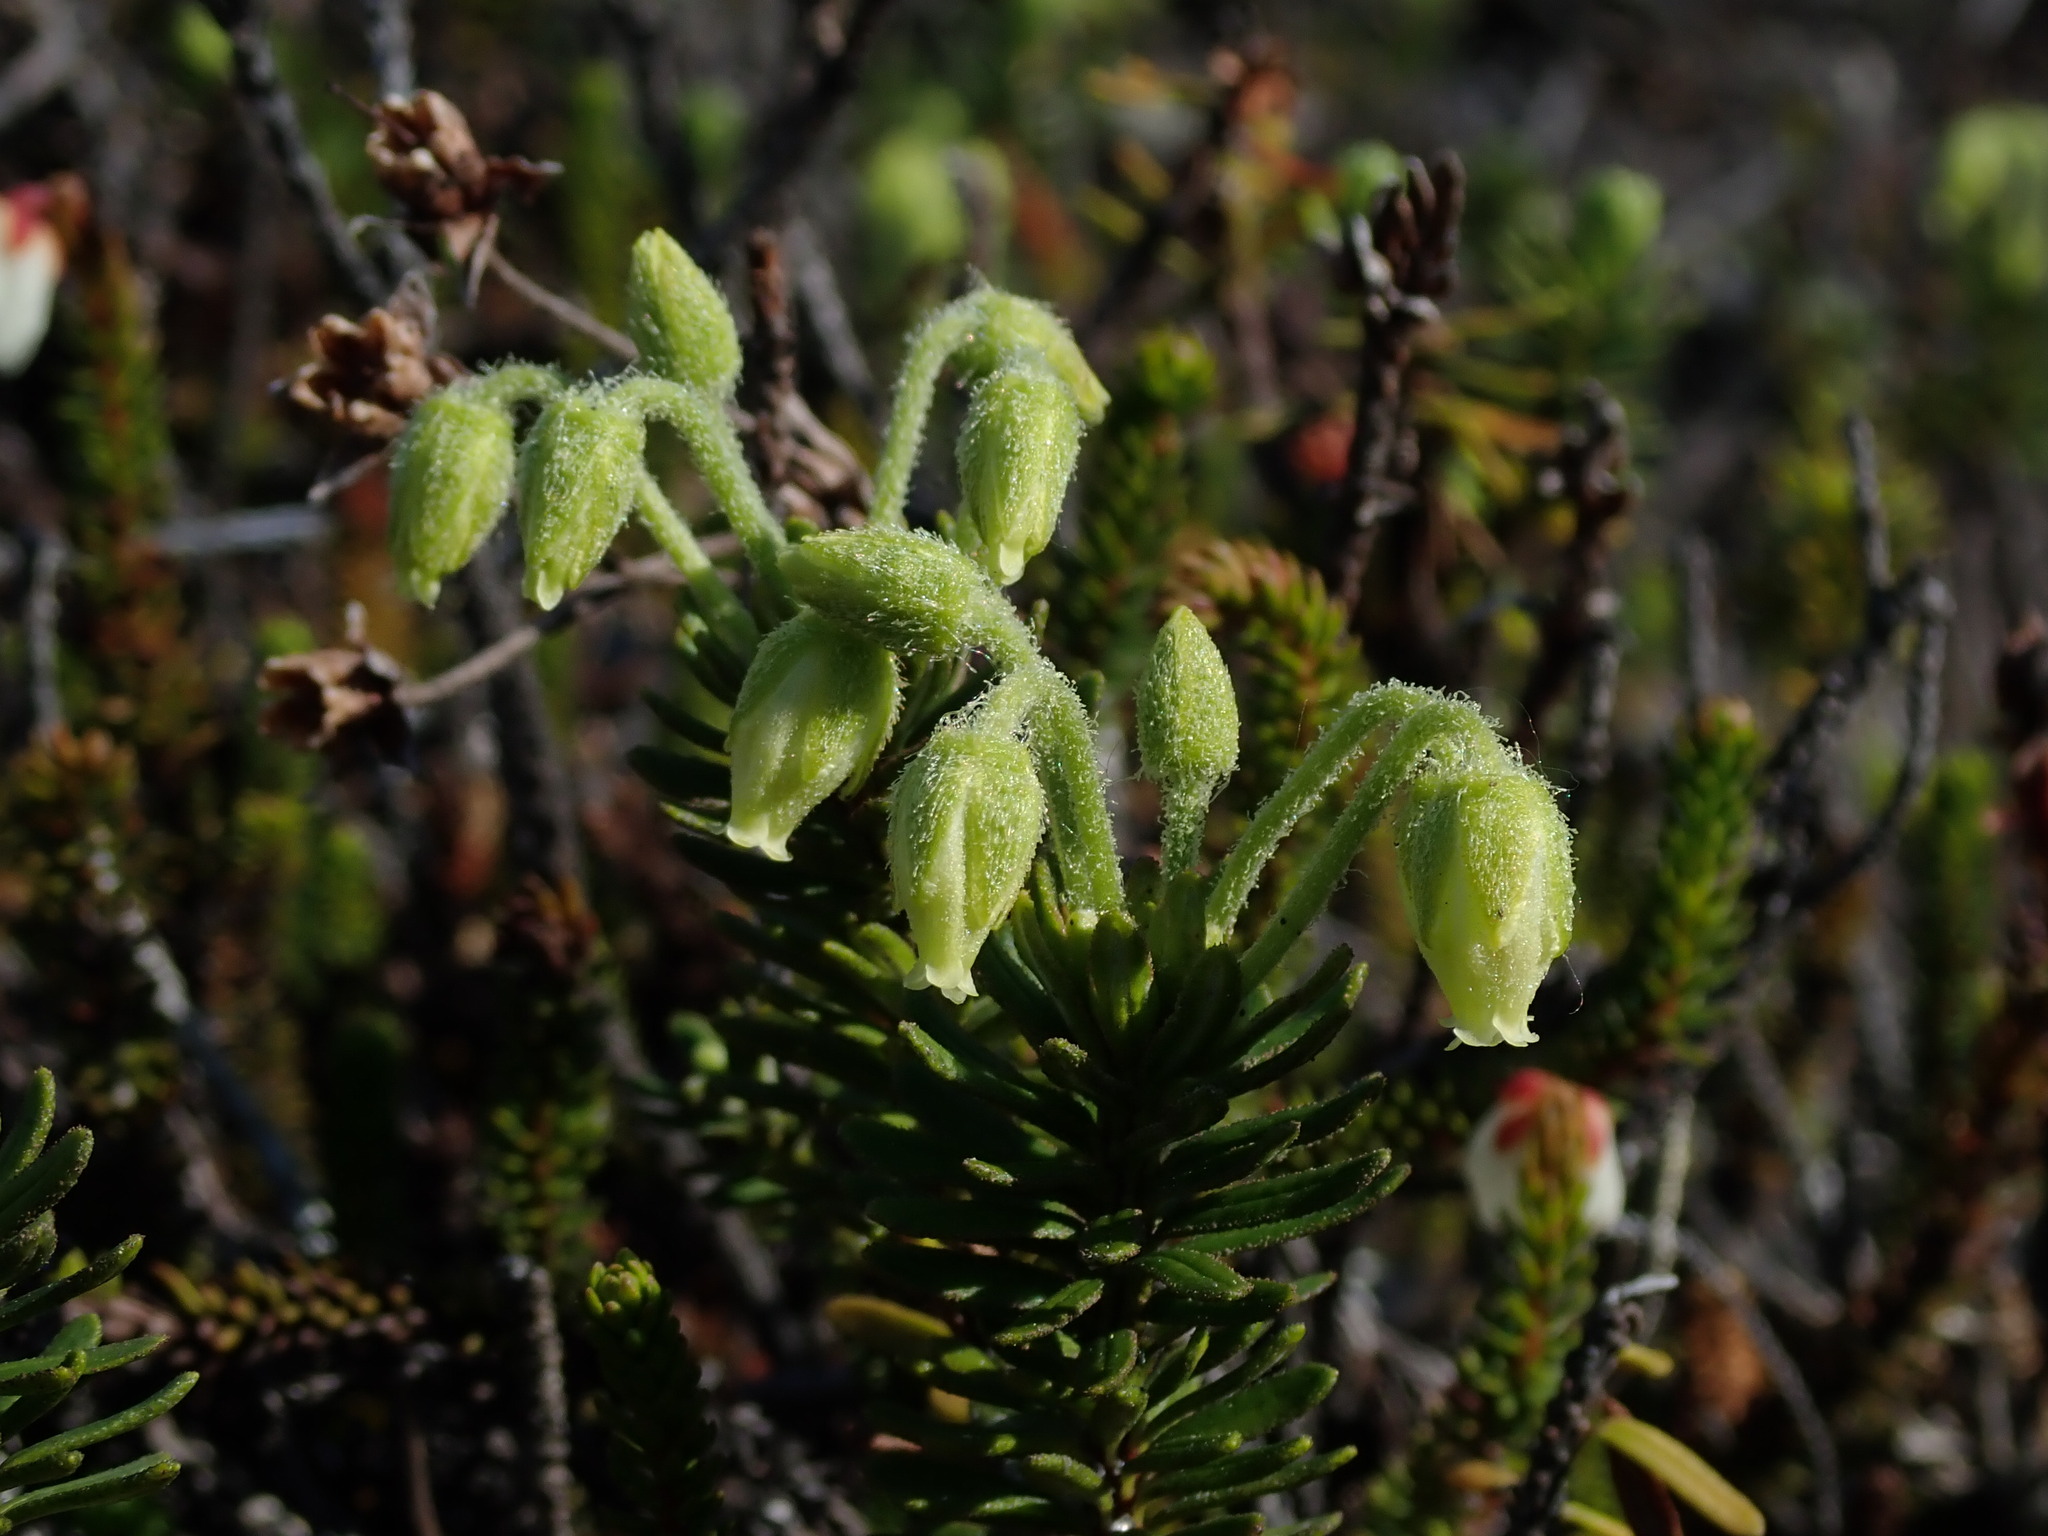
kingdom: Plantae
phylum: Tracheophyta
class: Magnoliopsida
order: Ericales
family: Ericaceae
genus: Phyllodoce
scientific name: Phyllodoce glanduliflora
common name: Cream mountain heather
